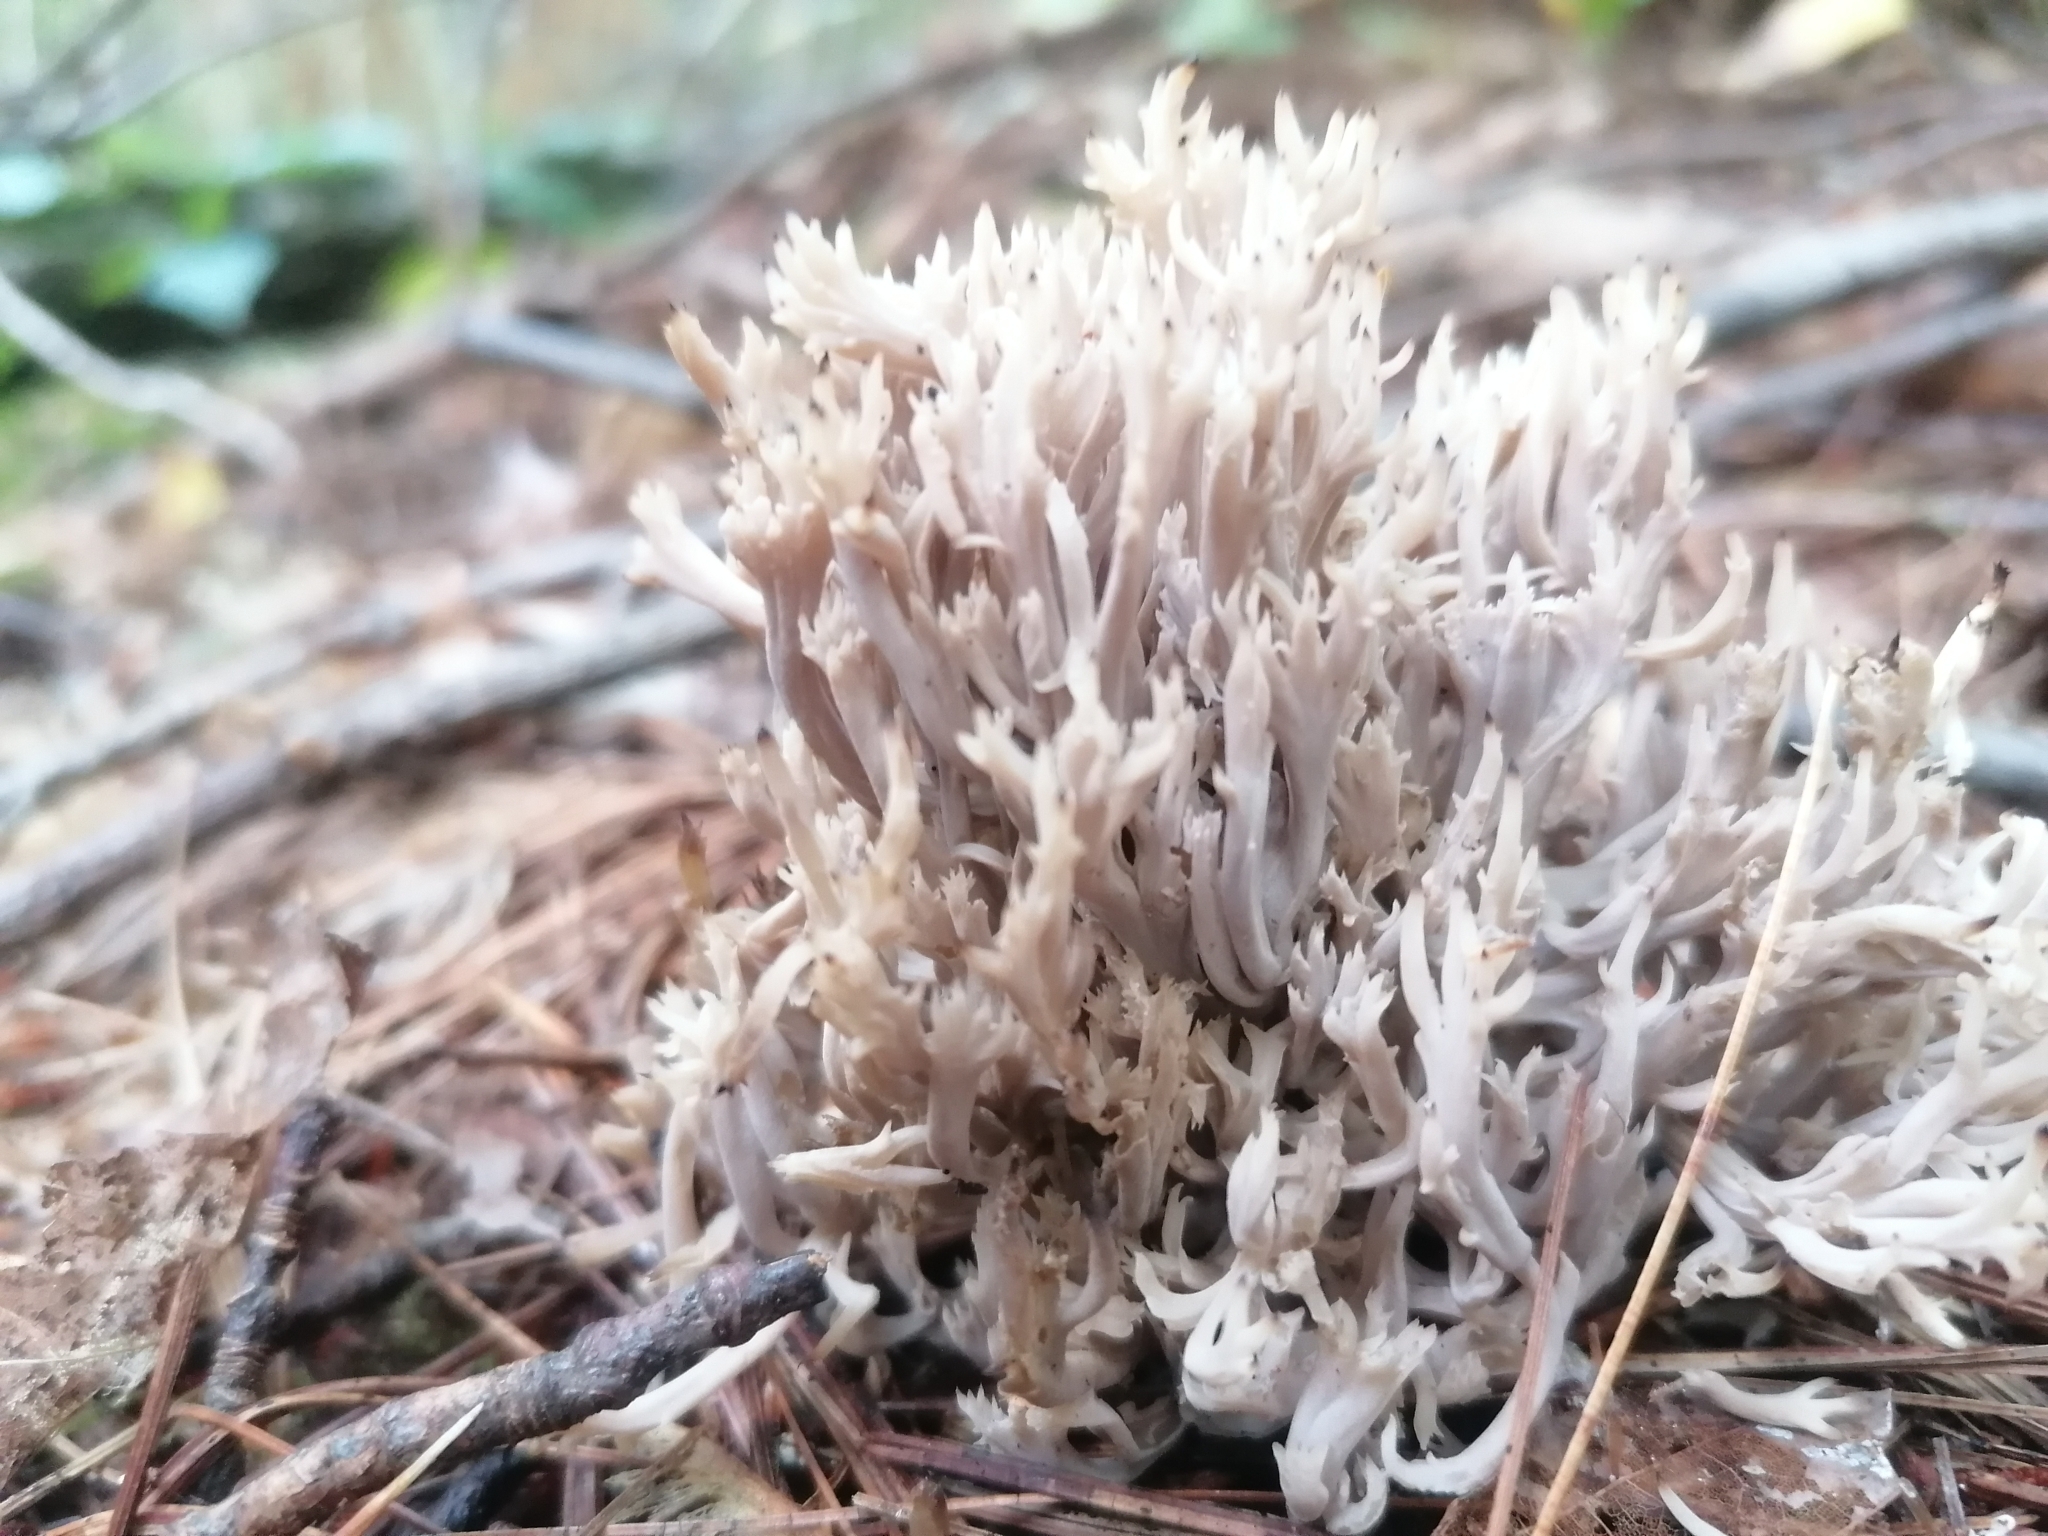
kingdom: Fungi
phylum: Basidiomycota
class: Agaricomycetes
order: Cantharellales
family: Hydnaceae
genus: Clavulina
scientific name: Clavulina coralloides
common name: Crested coral
